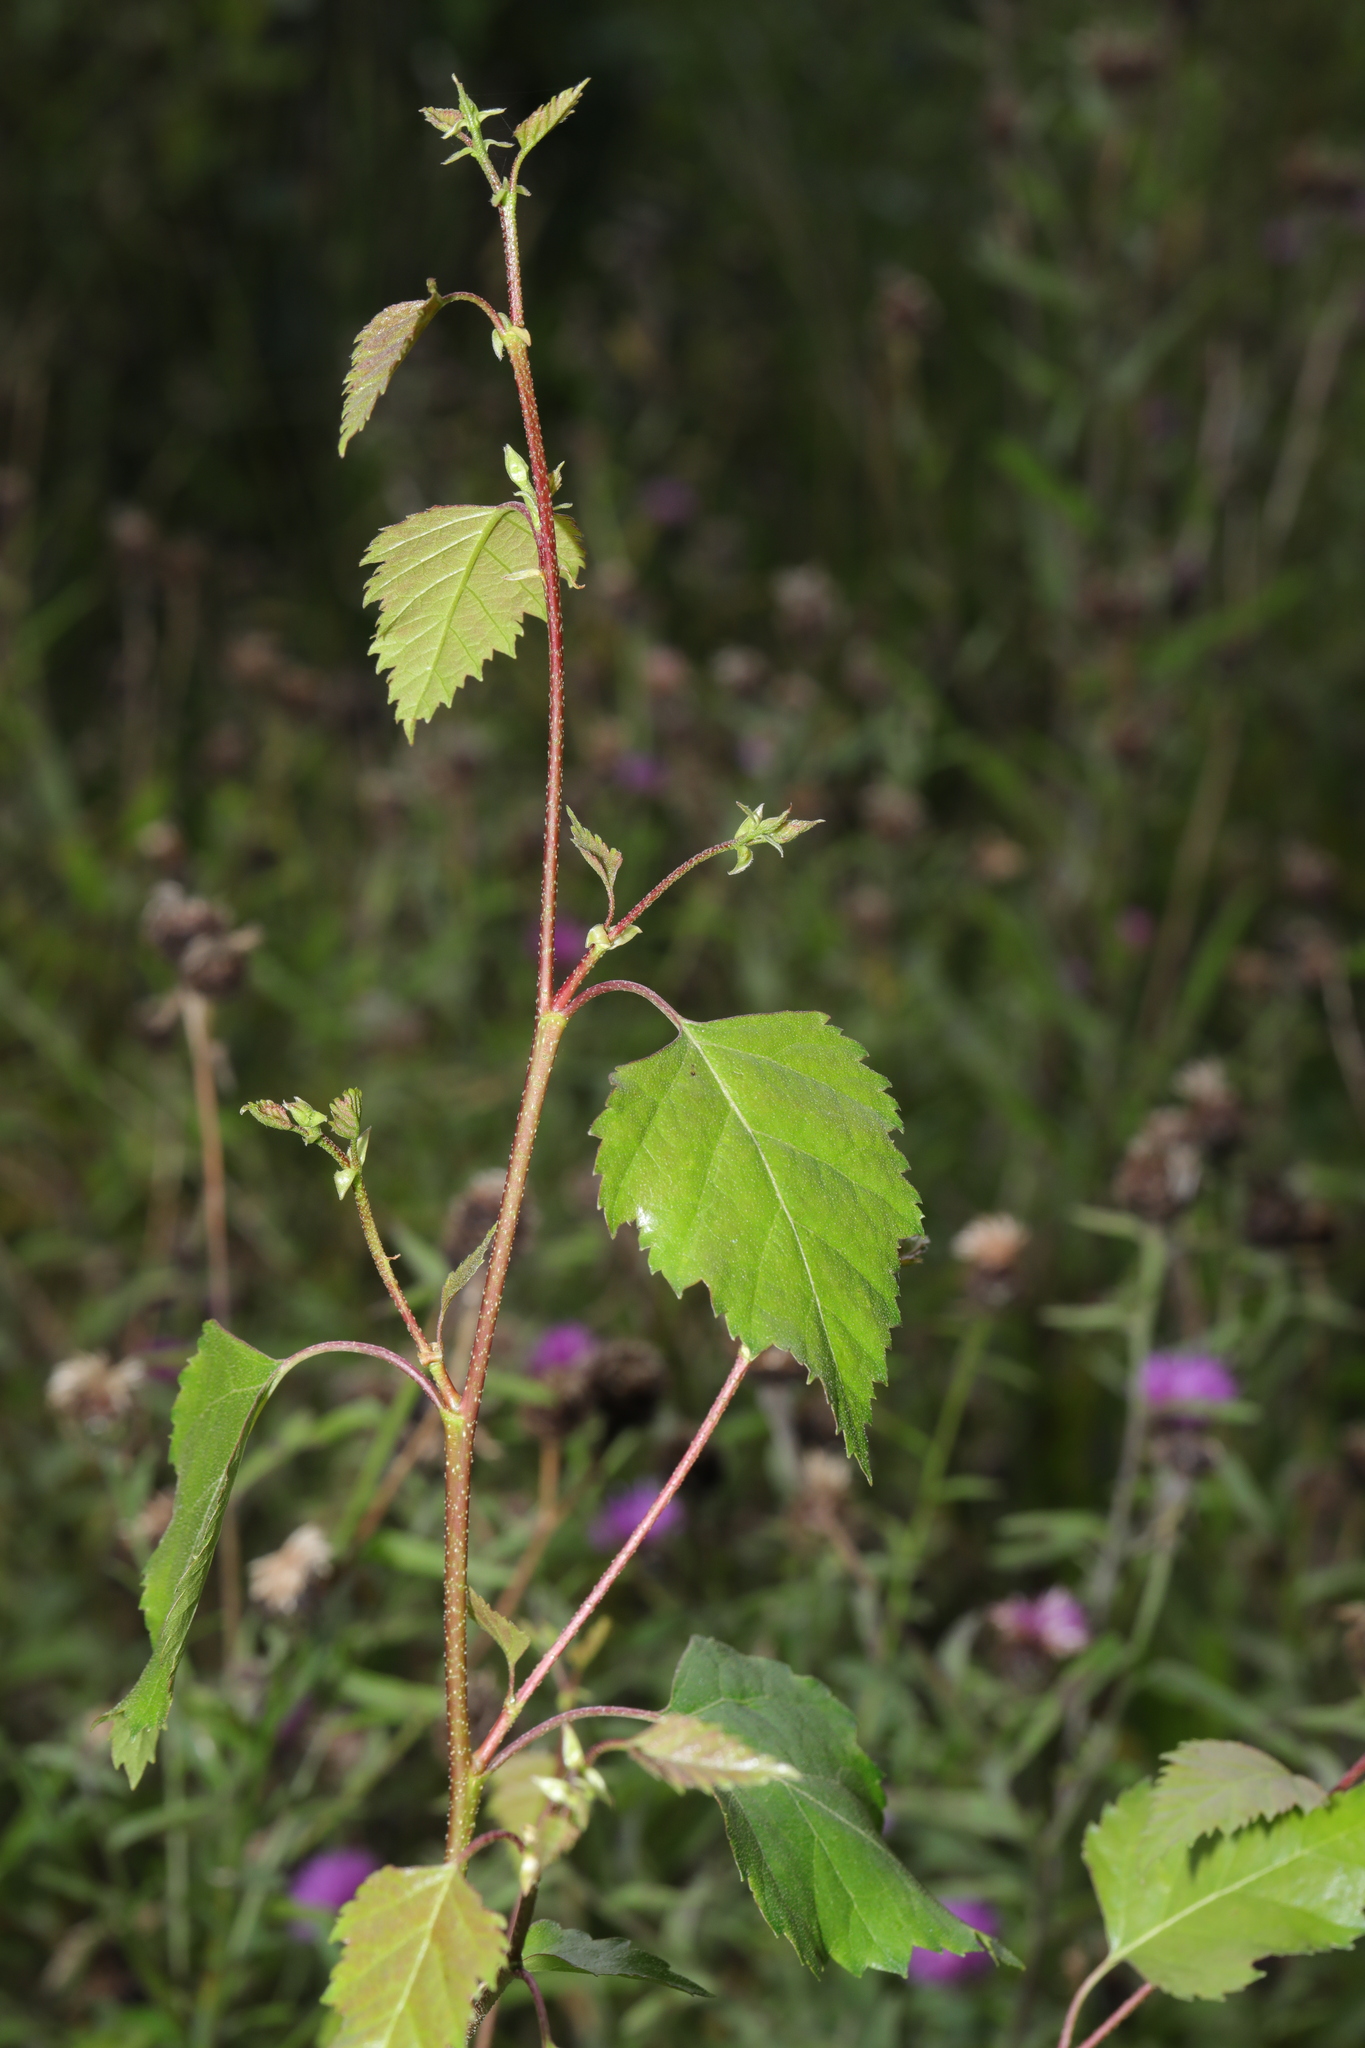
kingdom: Plantae
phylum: Tracheophyta
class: Magnoliopsida
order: Fagales
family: Betulaceae
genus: Betula
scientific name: Betula pendula
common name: Silver birch
